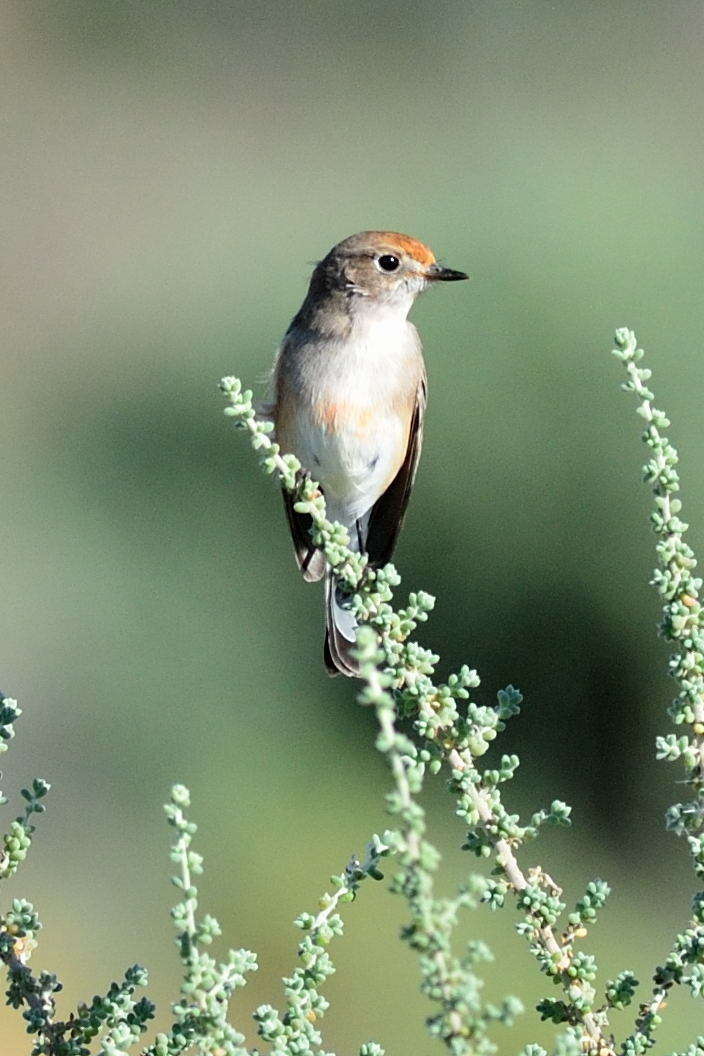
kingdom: Animalia
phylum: Chordata
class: Aves
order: Passeriformes
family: Petroicidae
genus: Petroica
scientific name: Petroica goodenovii
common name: Red-capped robin
